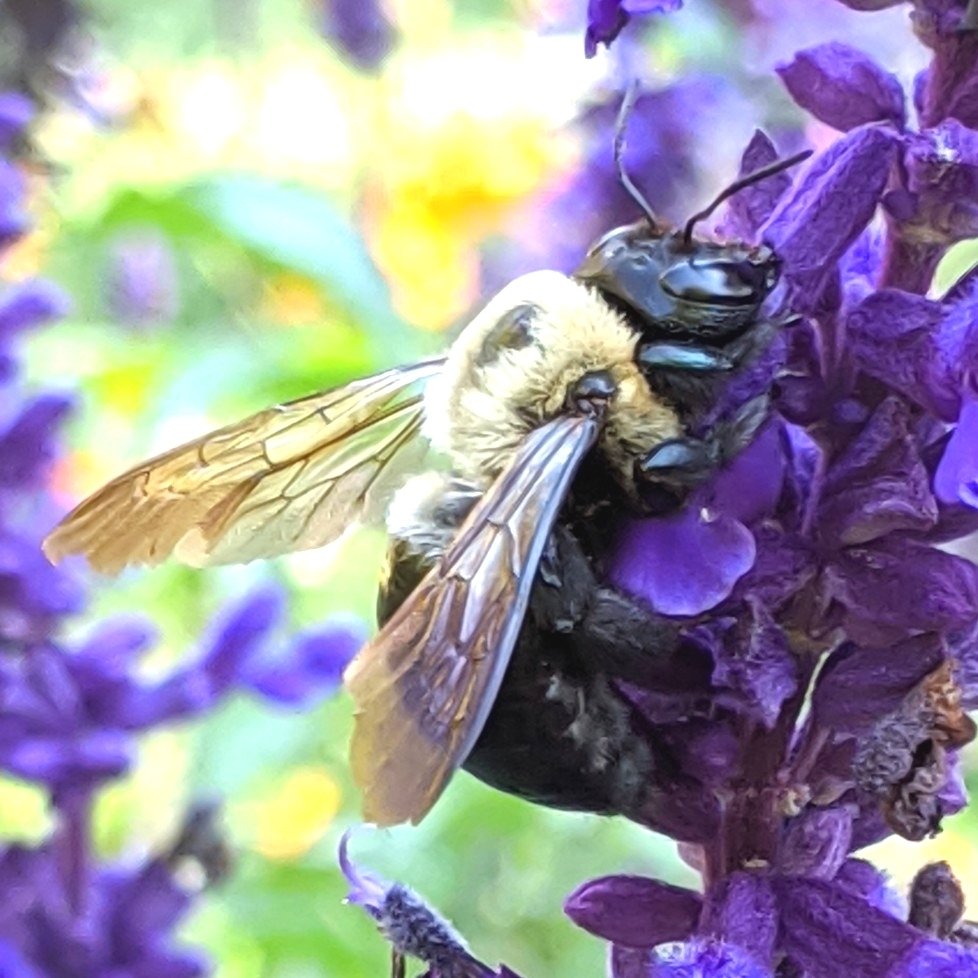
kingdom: Animalia
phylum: Arthropoda
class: Insecta
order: Hymenoptera
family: Apidae
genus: Xylocopa
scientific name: Xylocopa virginica
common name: Carpenter bee
